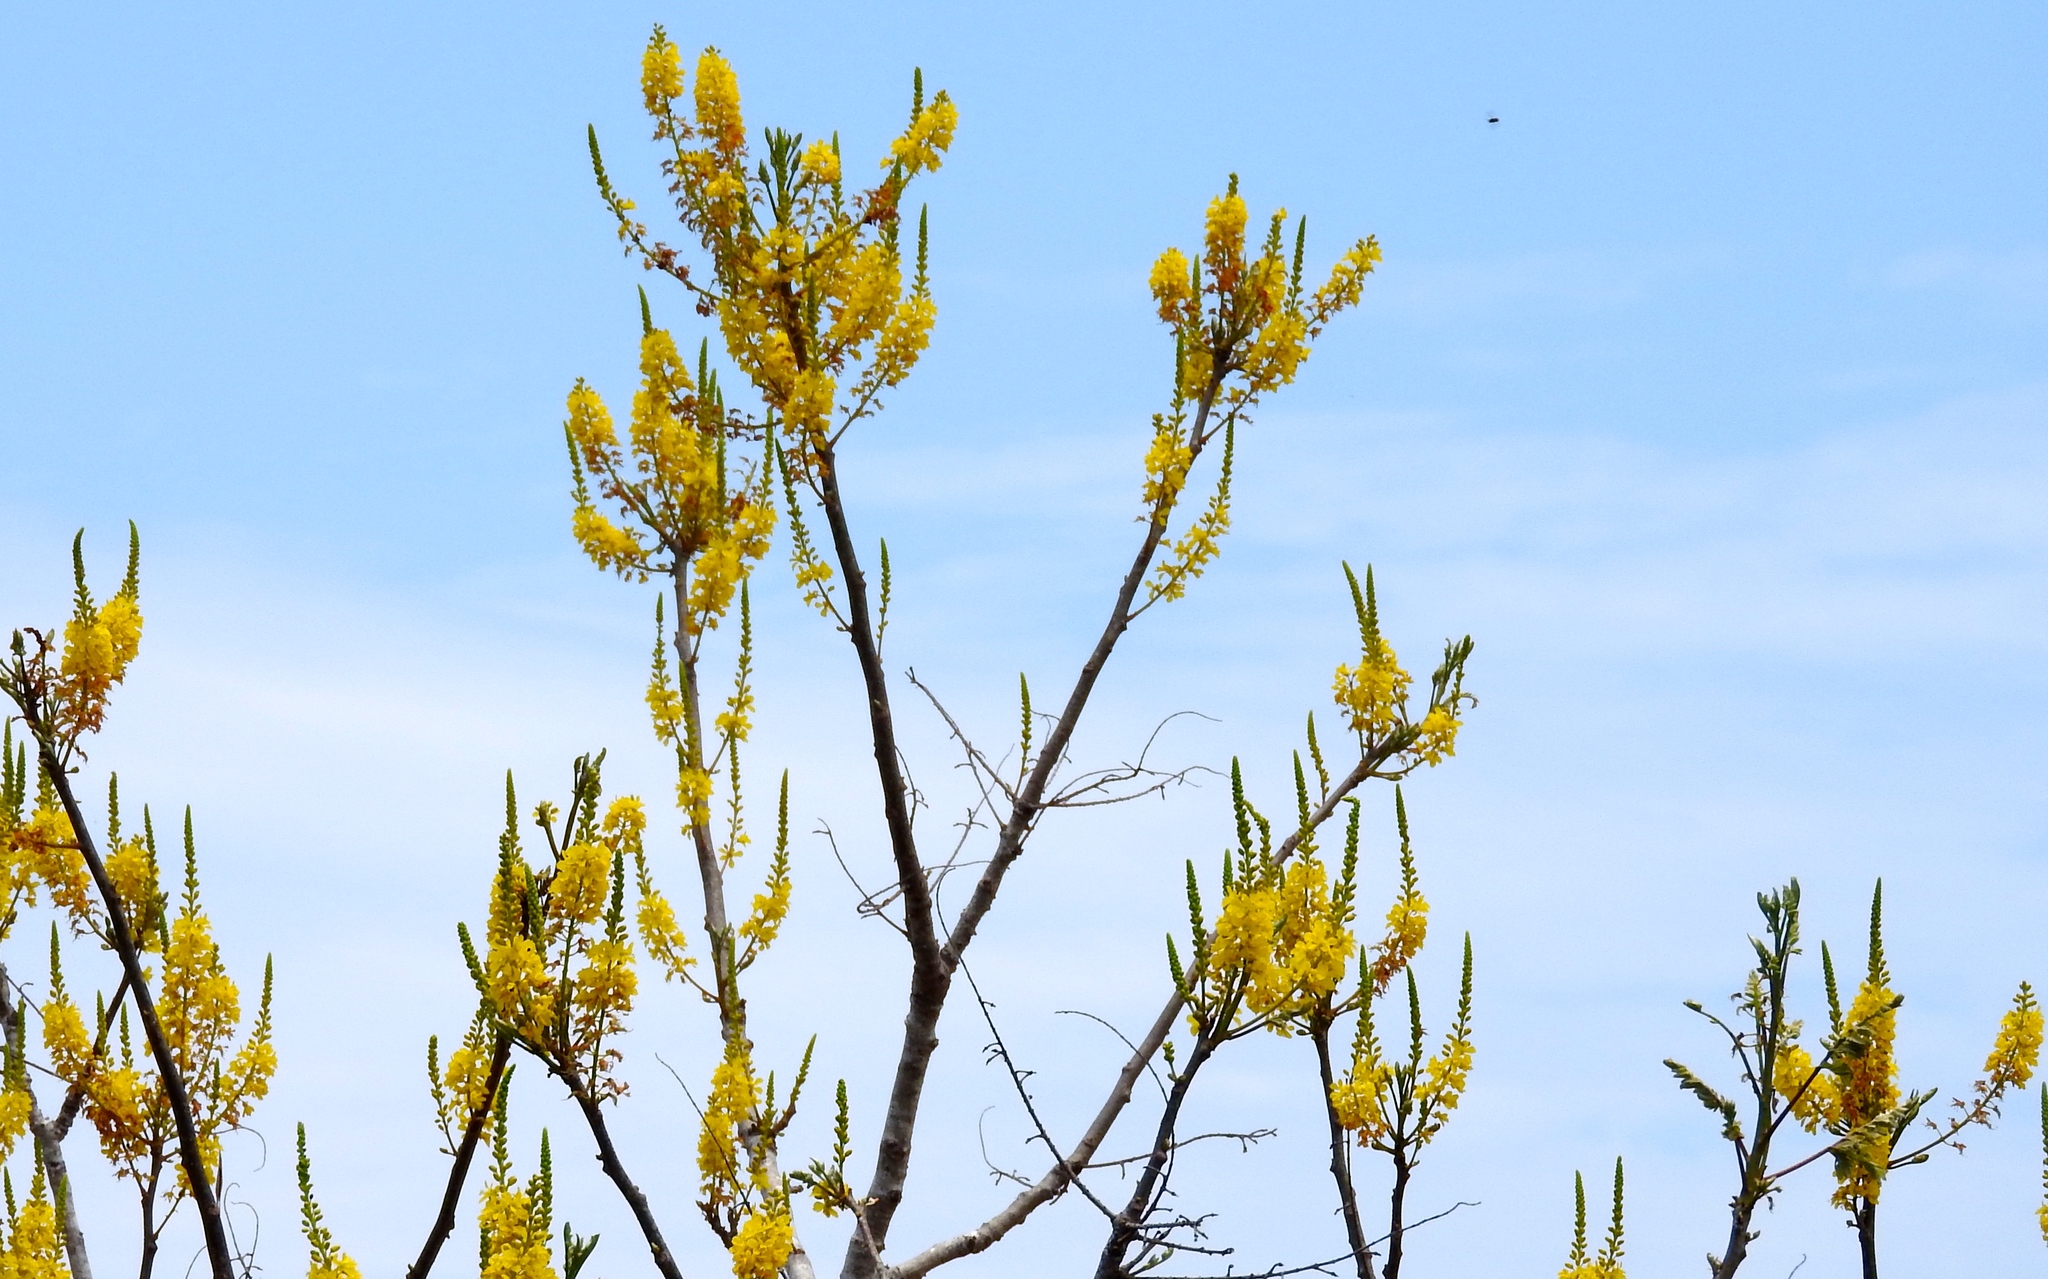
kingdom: Plantae
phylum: Tracheophyta
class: Magnoliopsida
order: Fabales
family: Fabaceae
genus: Conzattia
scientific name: Conzattia sericea
